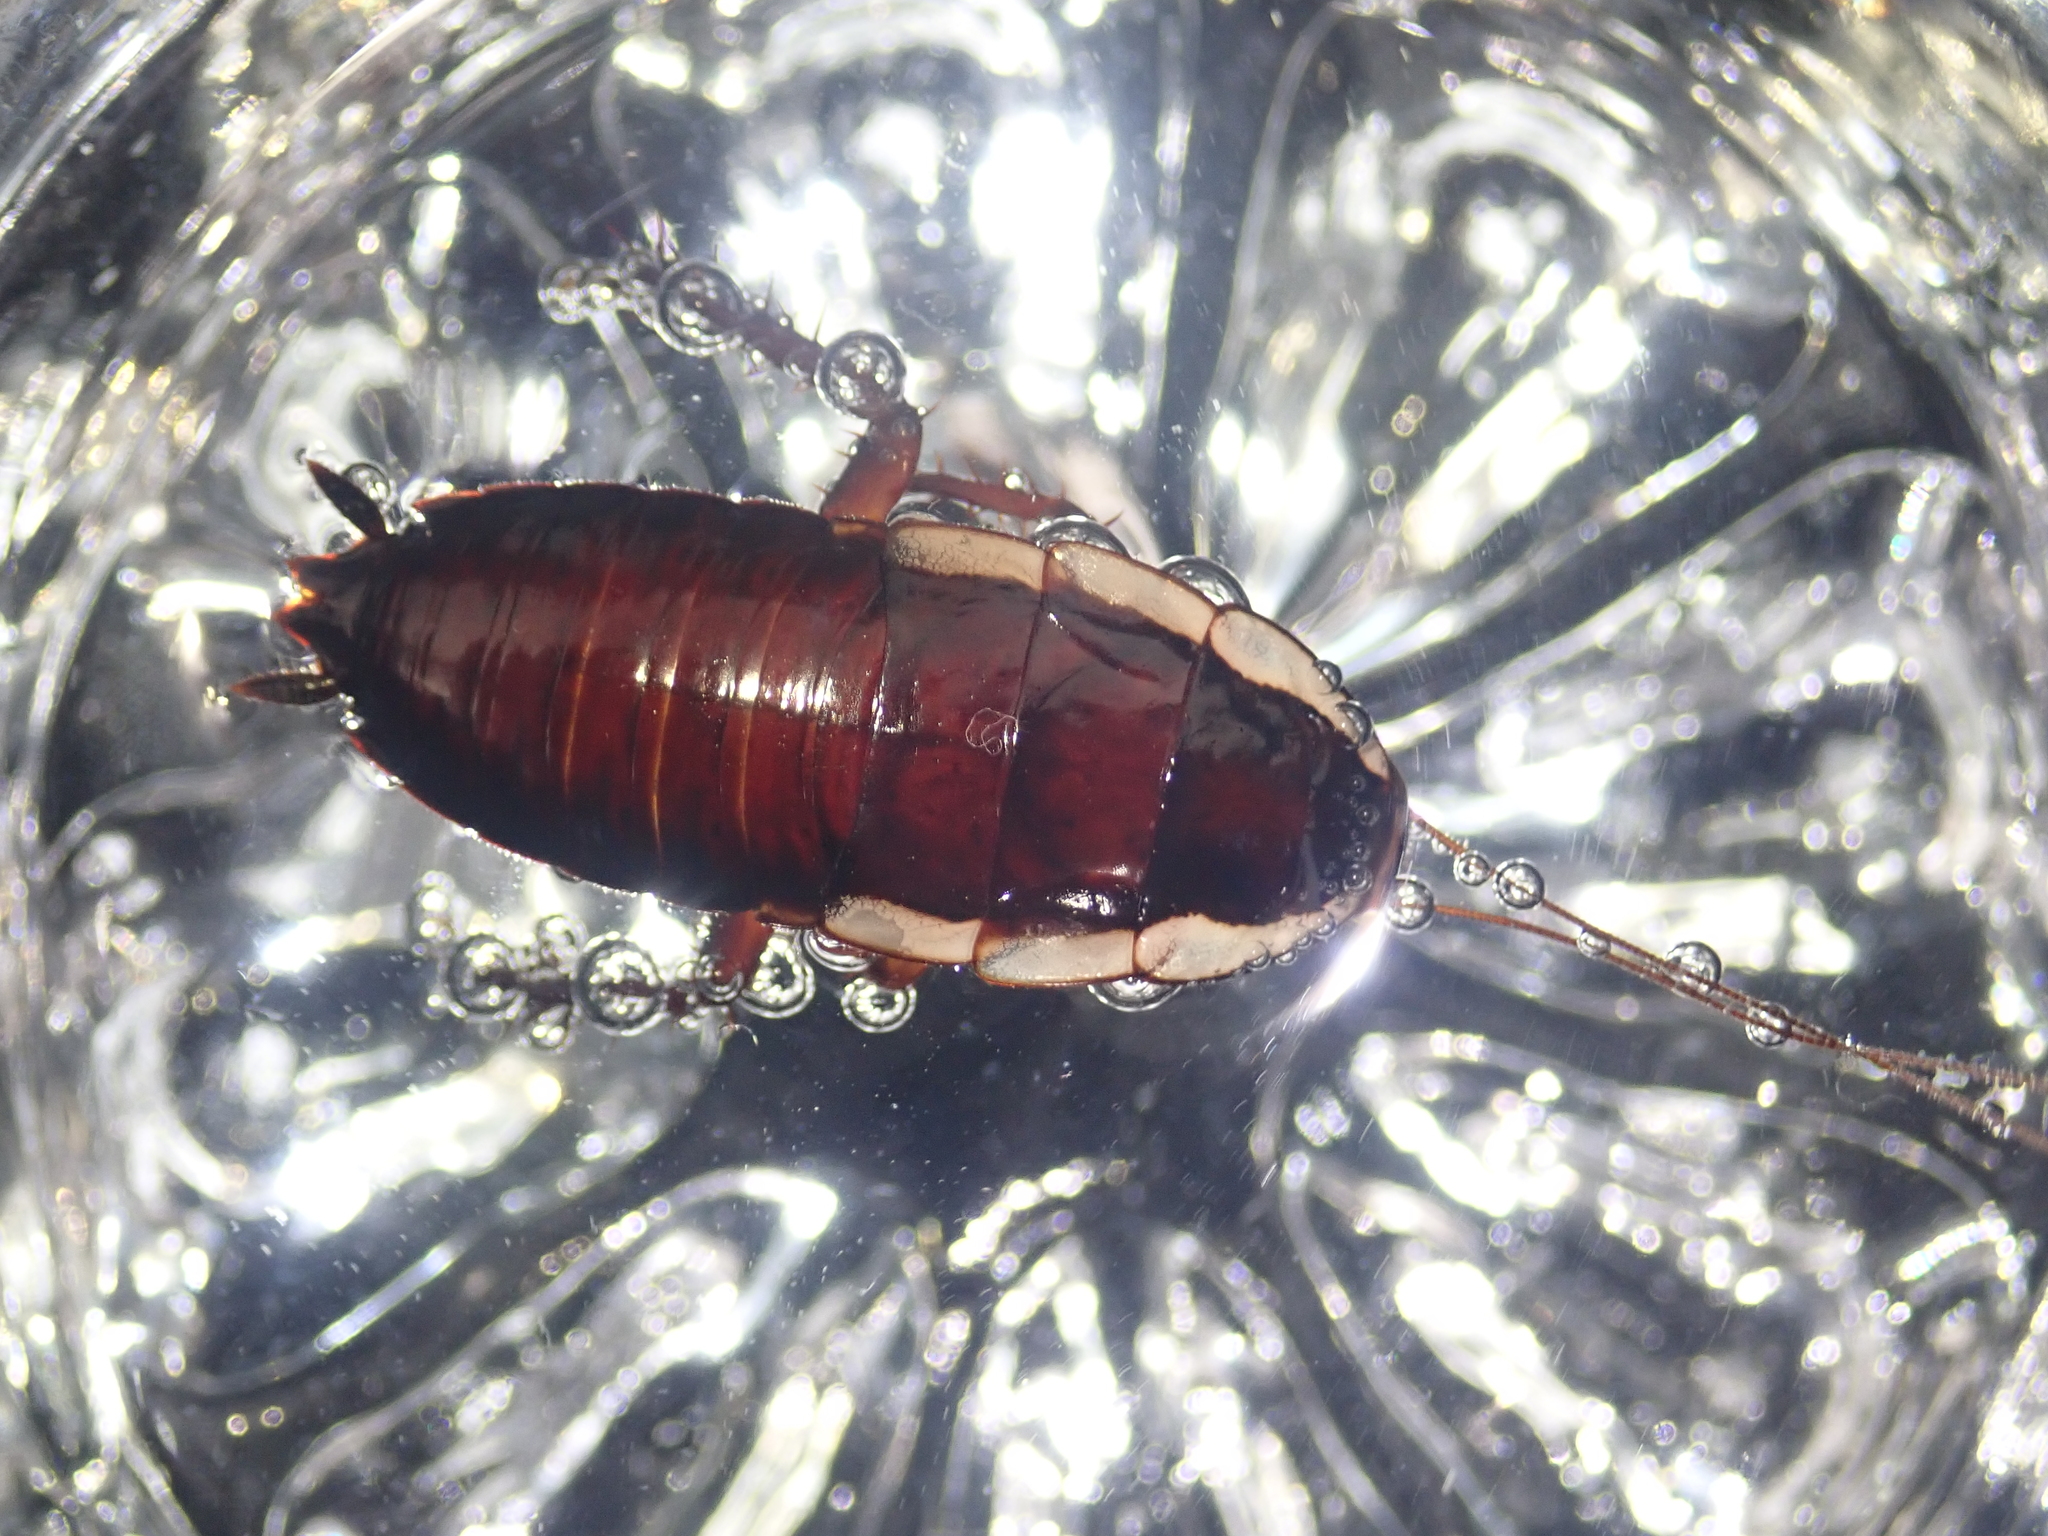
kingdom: Animalia
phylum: Arthropoda
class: Insecta
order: Blattodea
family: Blattidae
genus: Drymaplaneta
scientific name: Drymaplaneta semivitta
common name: Gisborne cockroach
